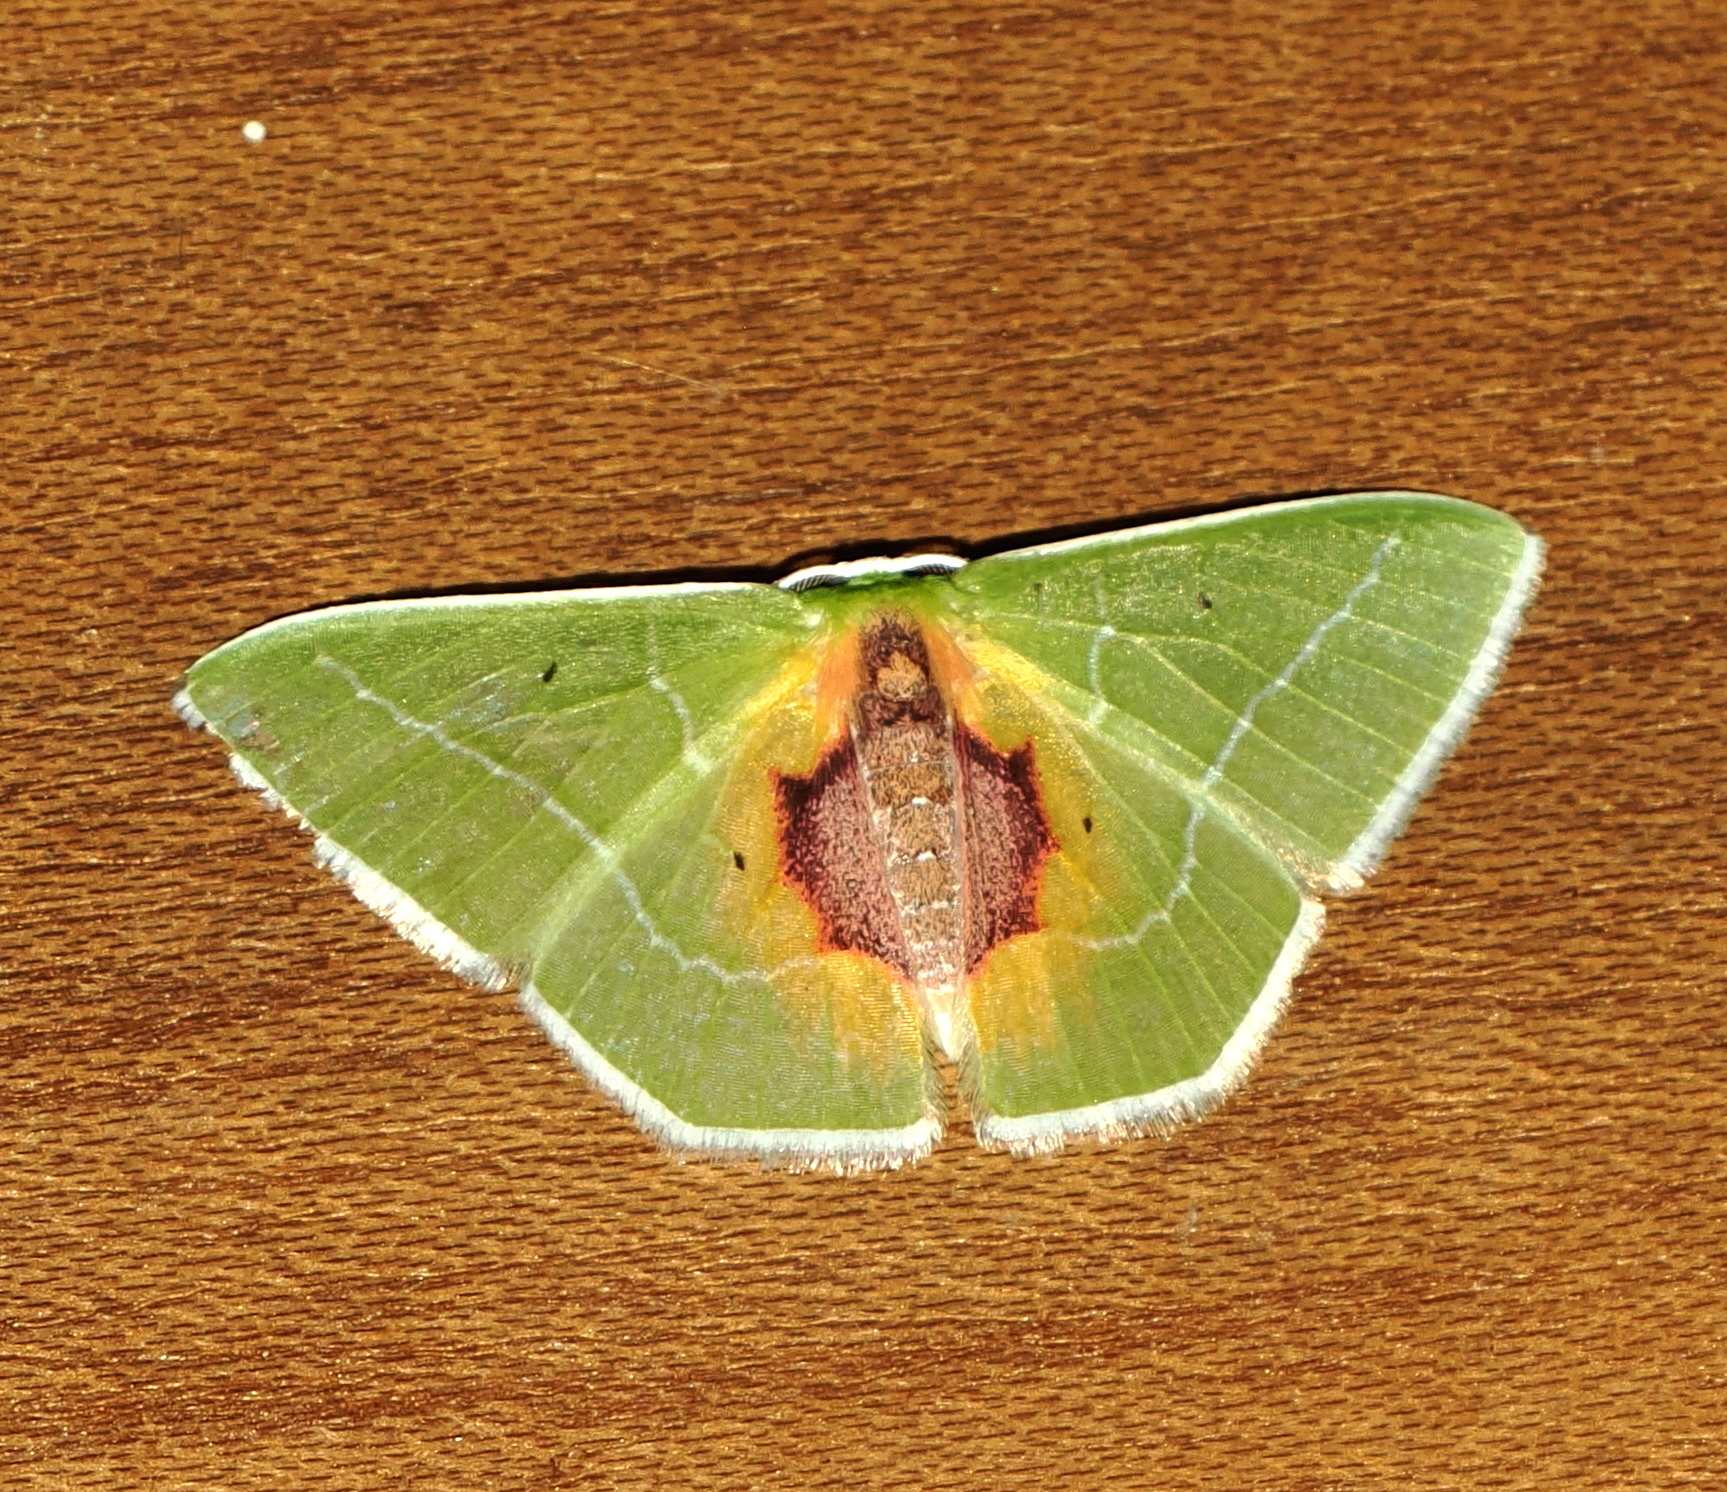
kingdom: Animalia
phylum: Arthropoda
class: Insecta
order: Lepidoptera
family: Geometridae
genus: Nemoria
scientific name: Nemoria astraea
